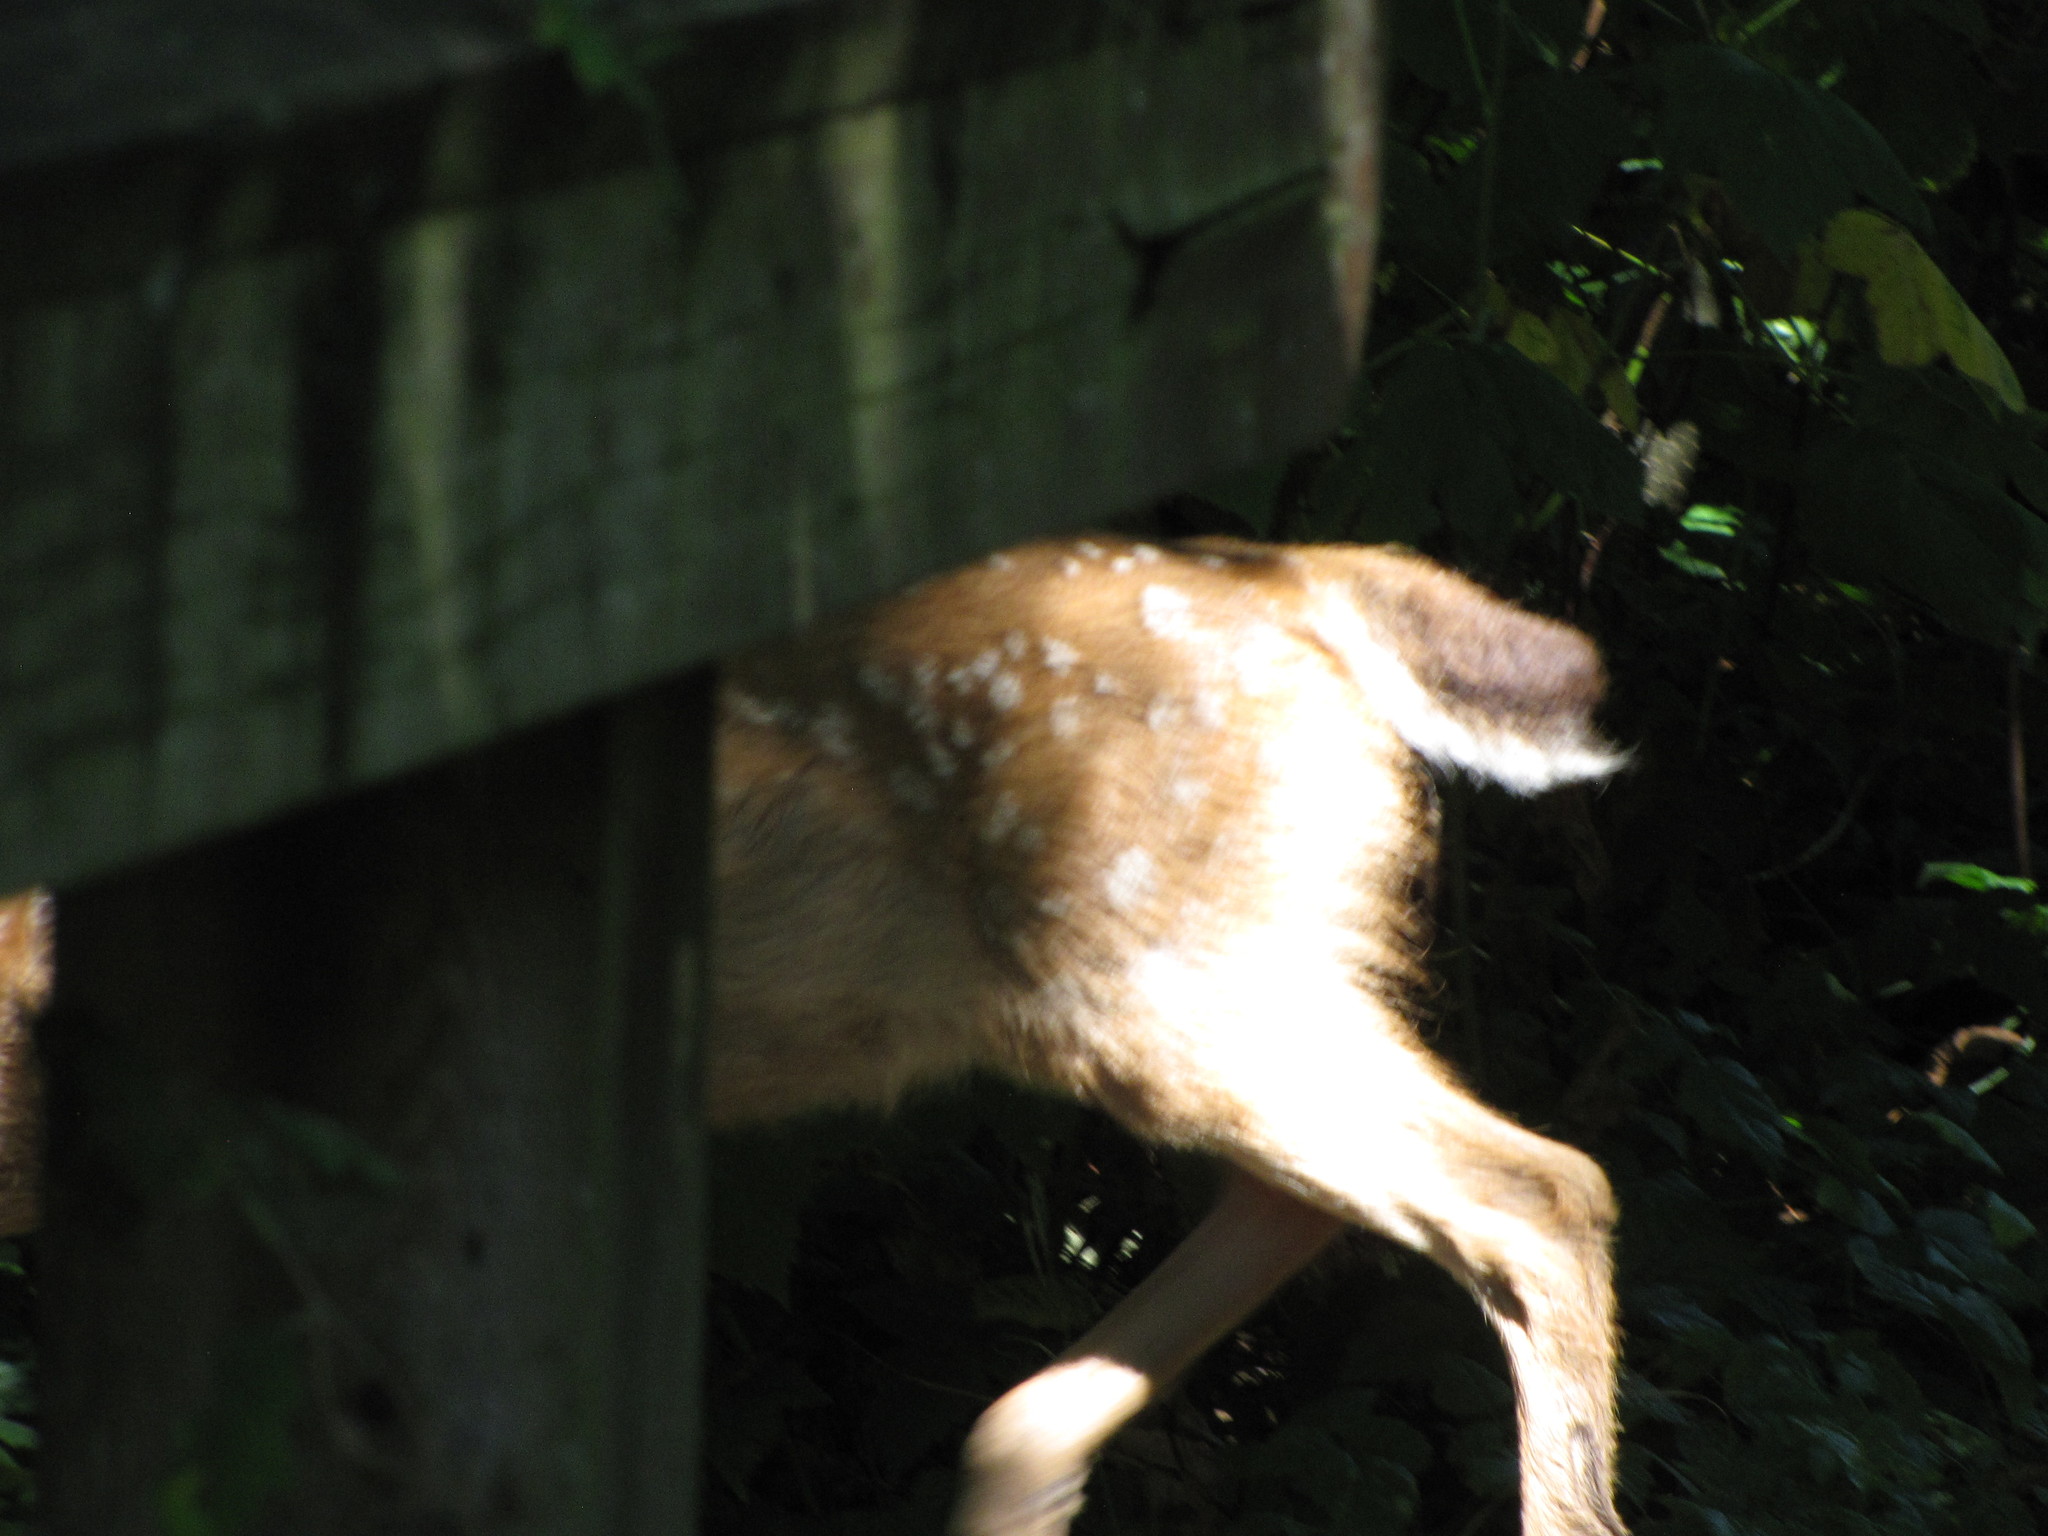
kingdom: Animalia
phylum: Chordata
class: Mammalia
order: Artiodactyla
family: Cervidae
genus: Odocoileus
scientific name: Odocoileus hemionus
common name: Mule deer
